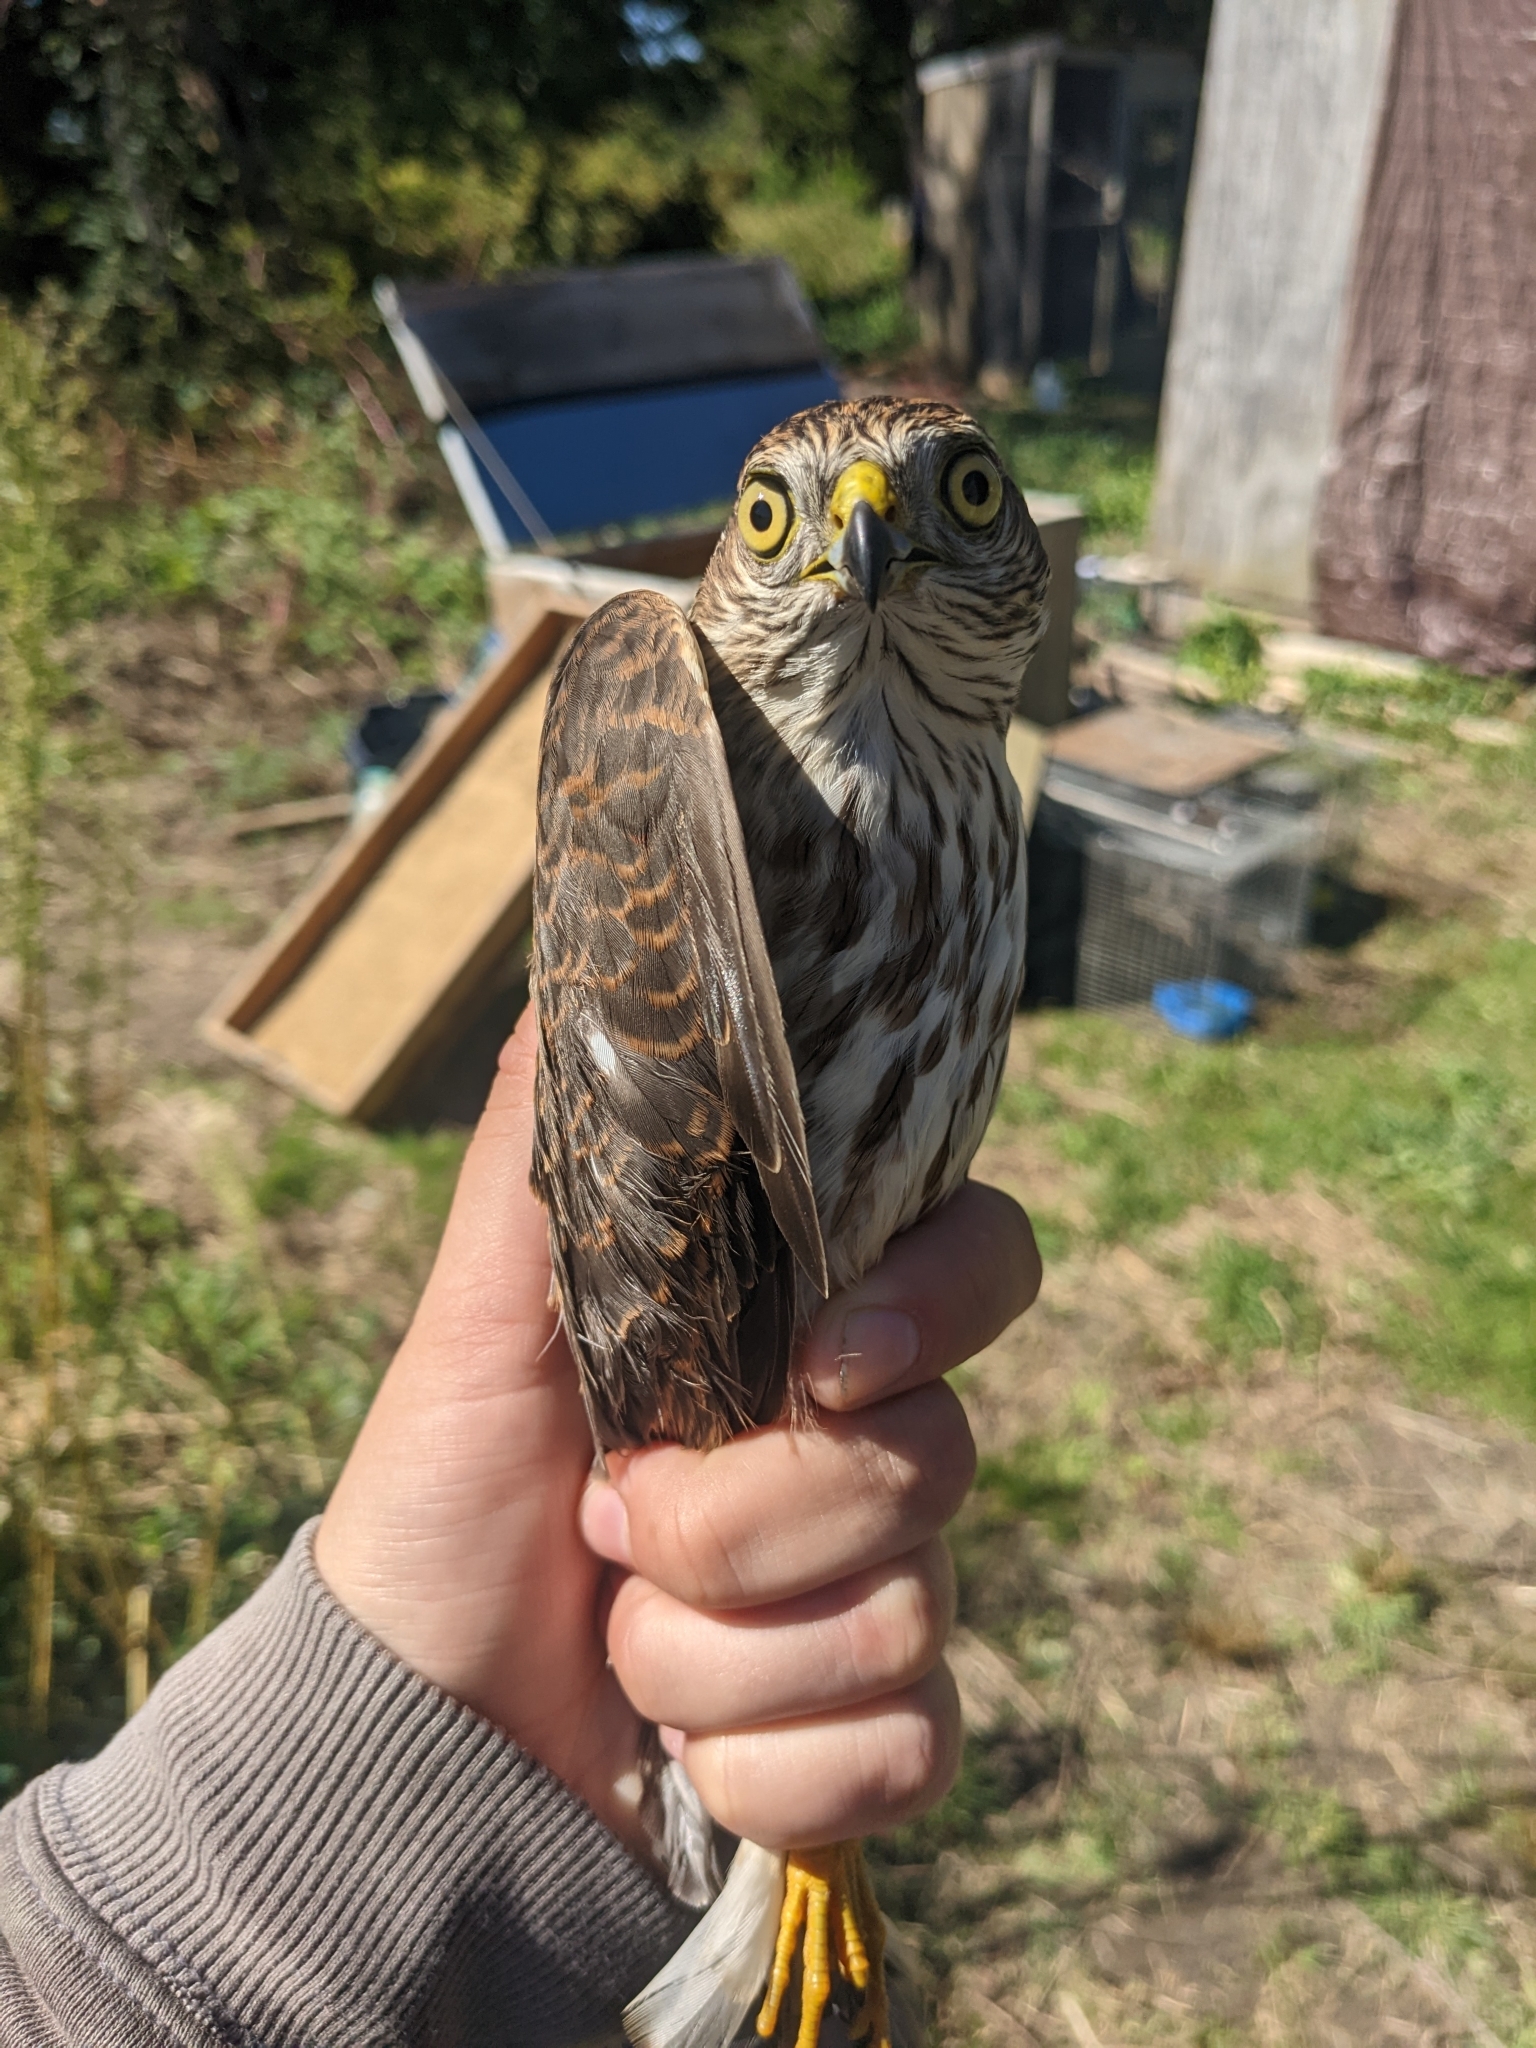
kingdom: Animalia
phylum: Chordata
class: Aves
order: Accipitriformes
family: Accipitridae
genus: Accipiter
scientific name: Accipiter striatus
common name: Sharp-shinned hawk
